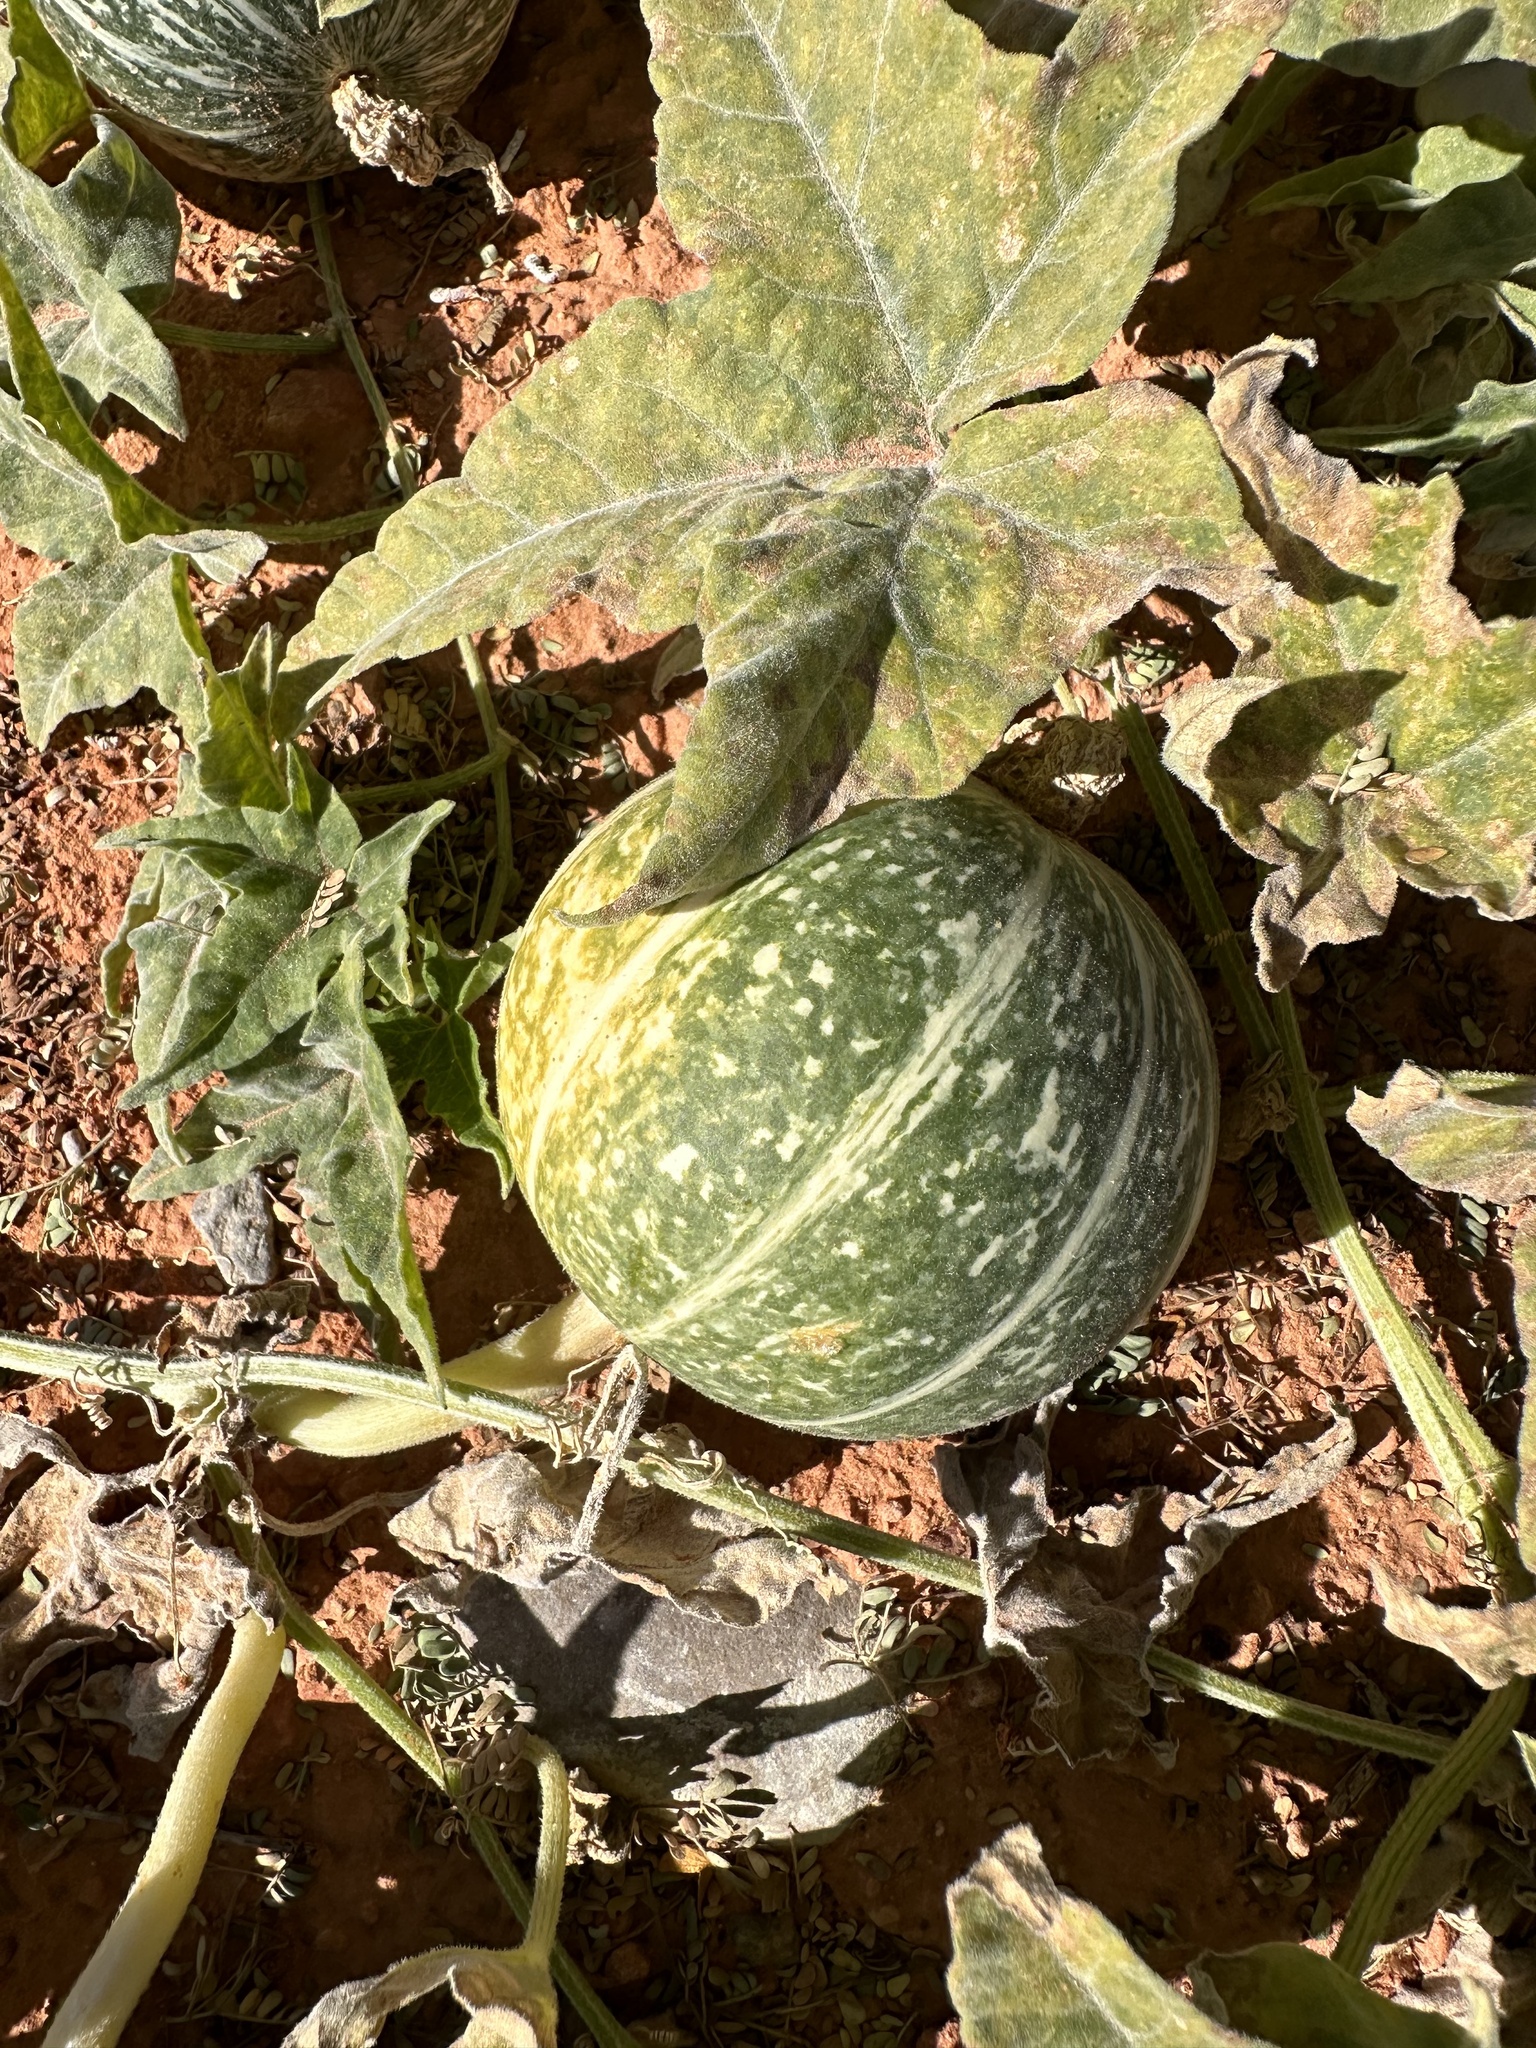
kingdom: Plantae
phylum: Tracheophyta
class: Magnoliopsida
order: Cucurbitales
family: Cucurbitaceae
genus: Cucurbita
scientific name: Cucurbita palmata
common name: Coyote-melon
